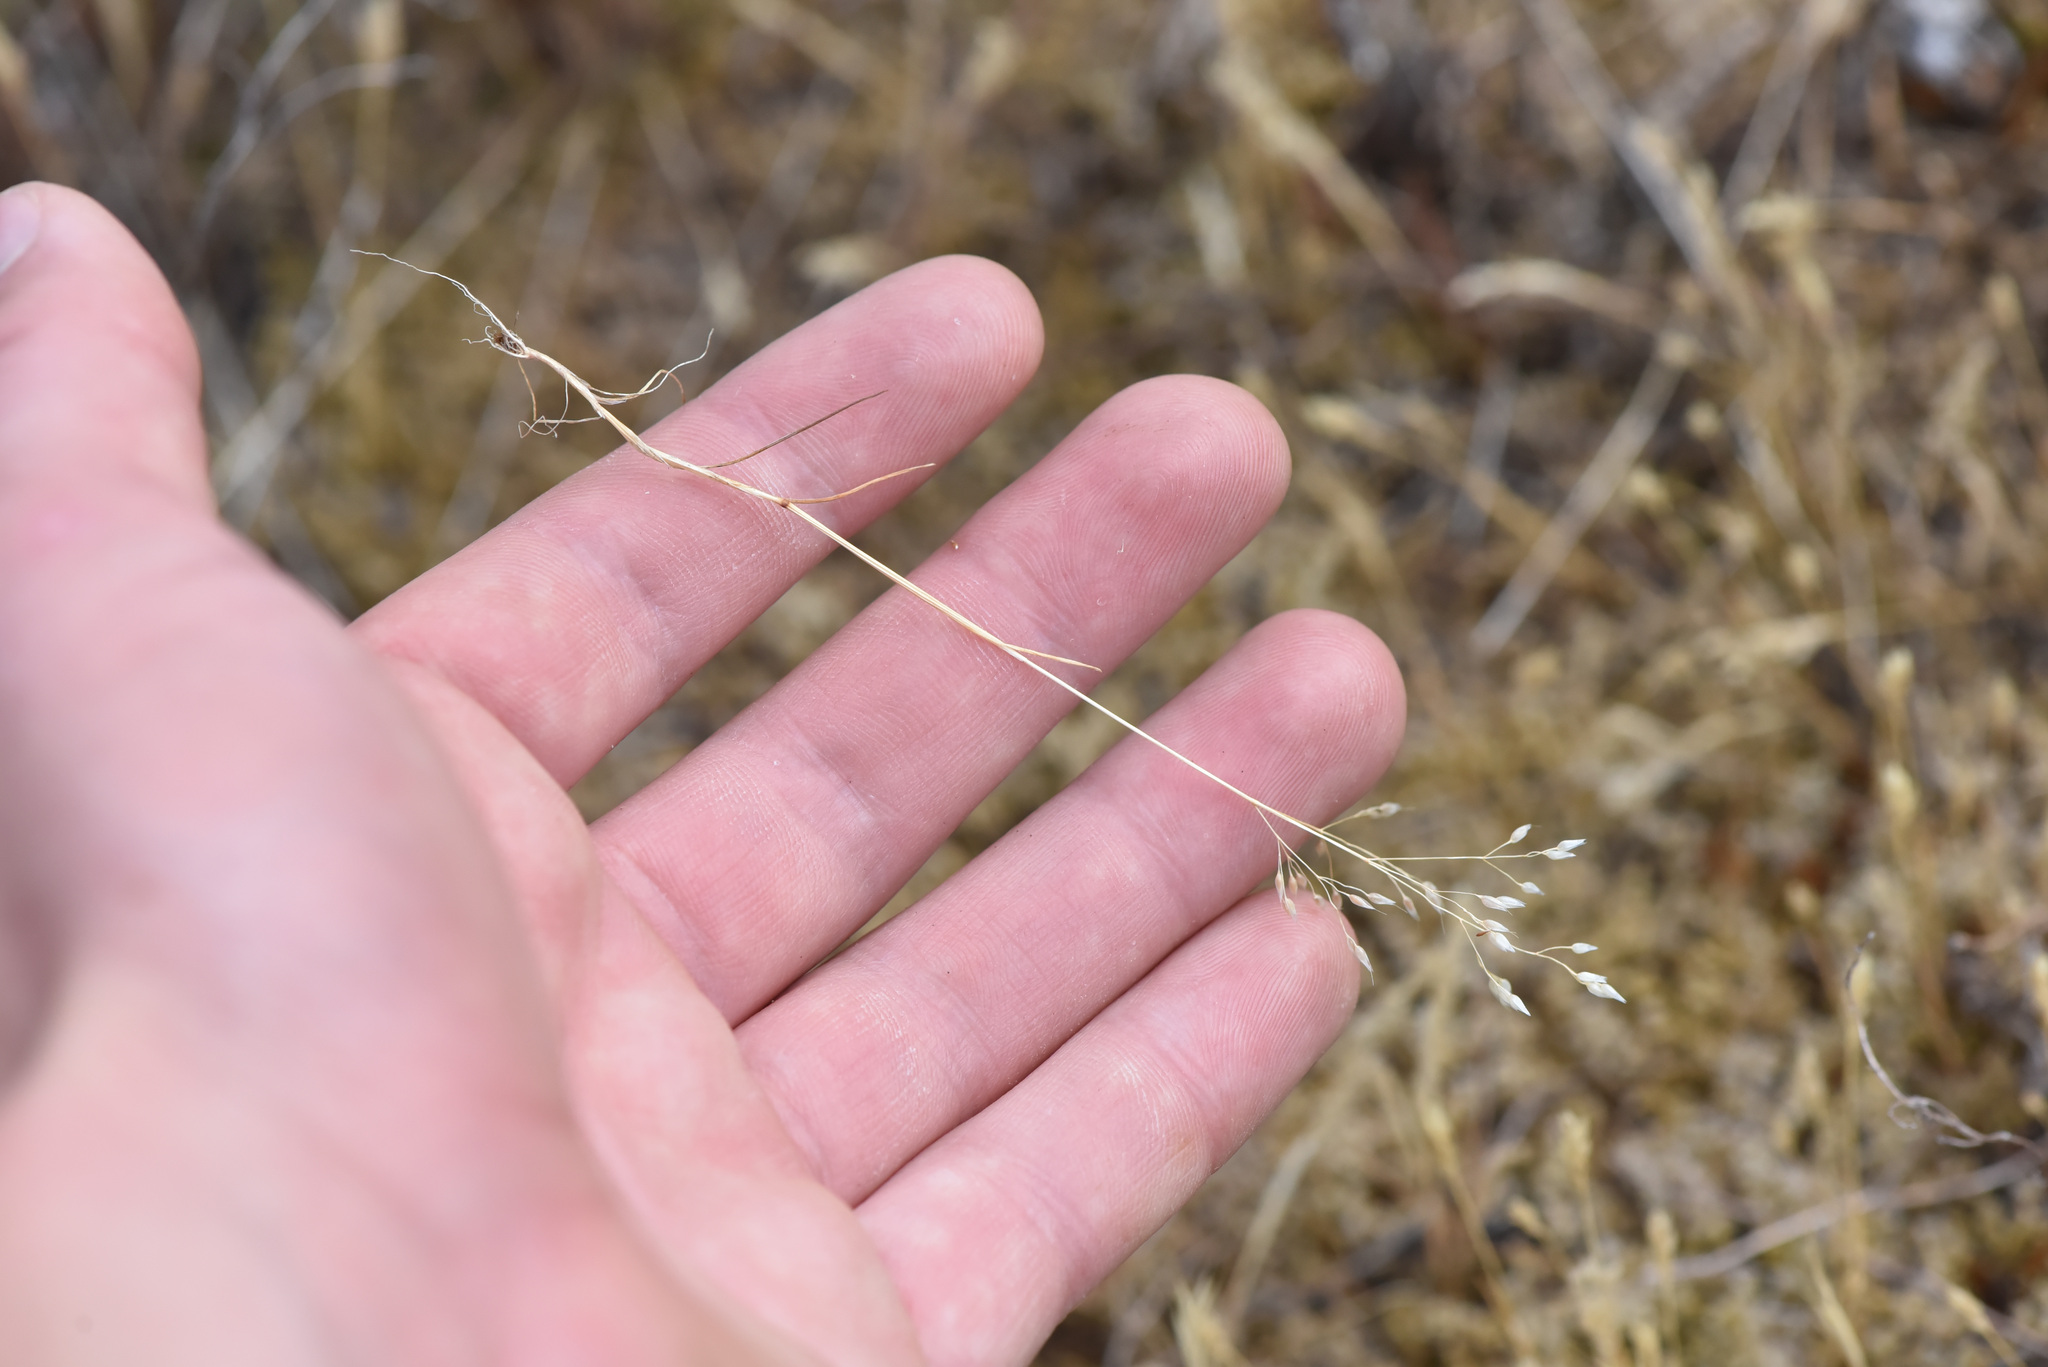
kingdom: Plantae
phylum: Tracheophyta
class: Liliopsida
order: Poales
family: Poaceae
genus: Aira
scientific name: Aira caryophyllea
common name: Silver hairgrass
